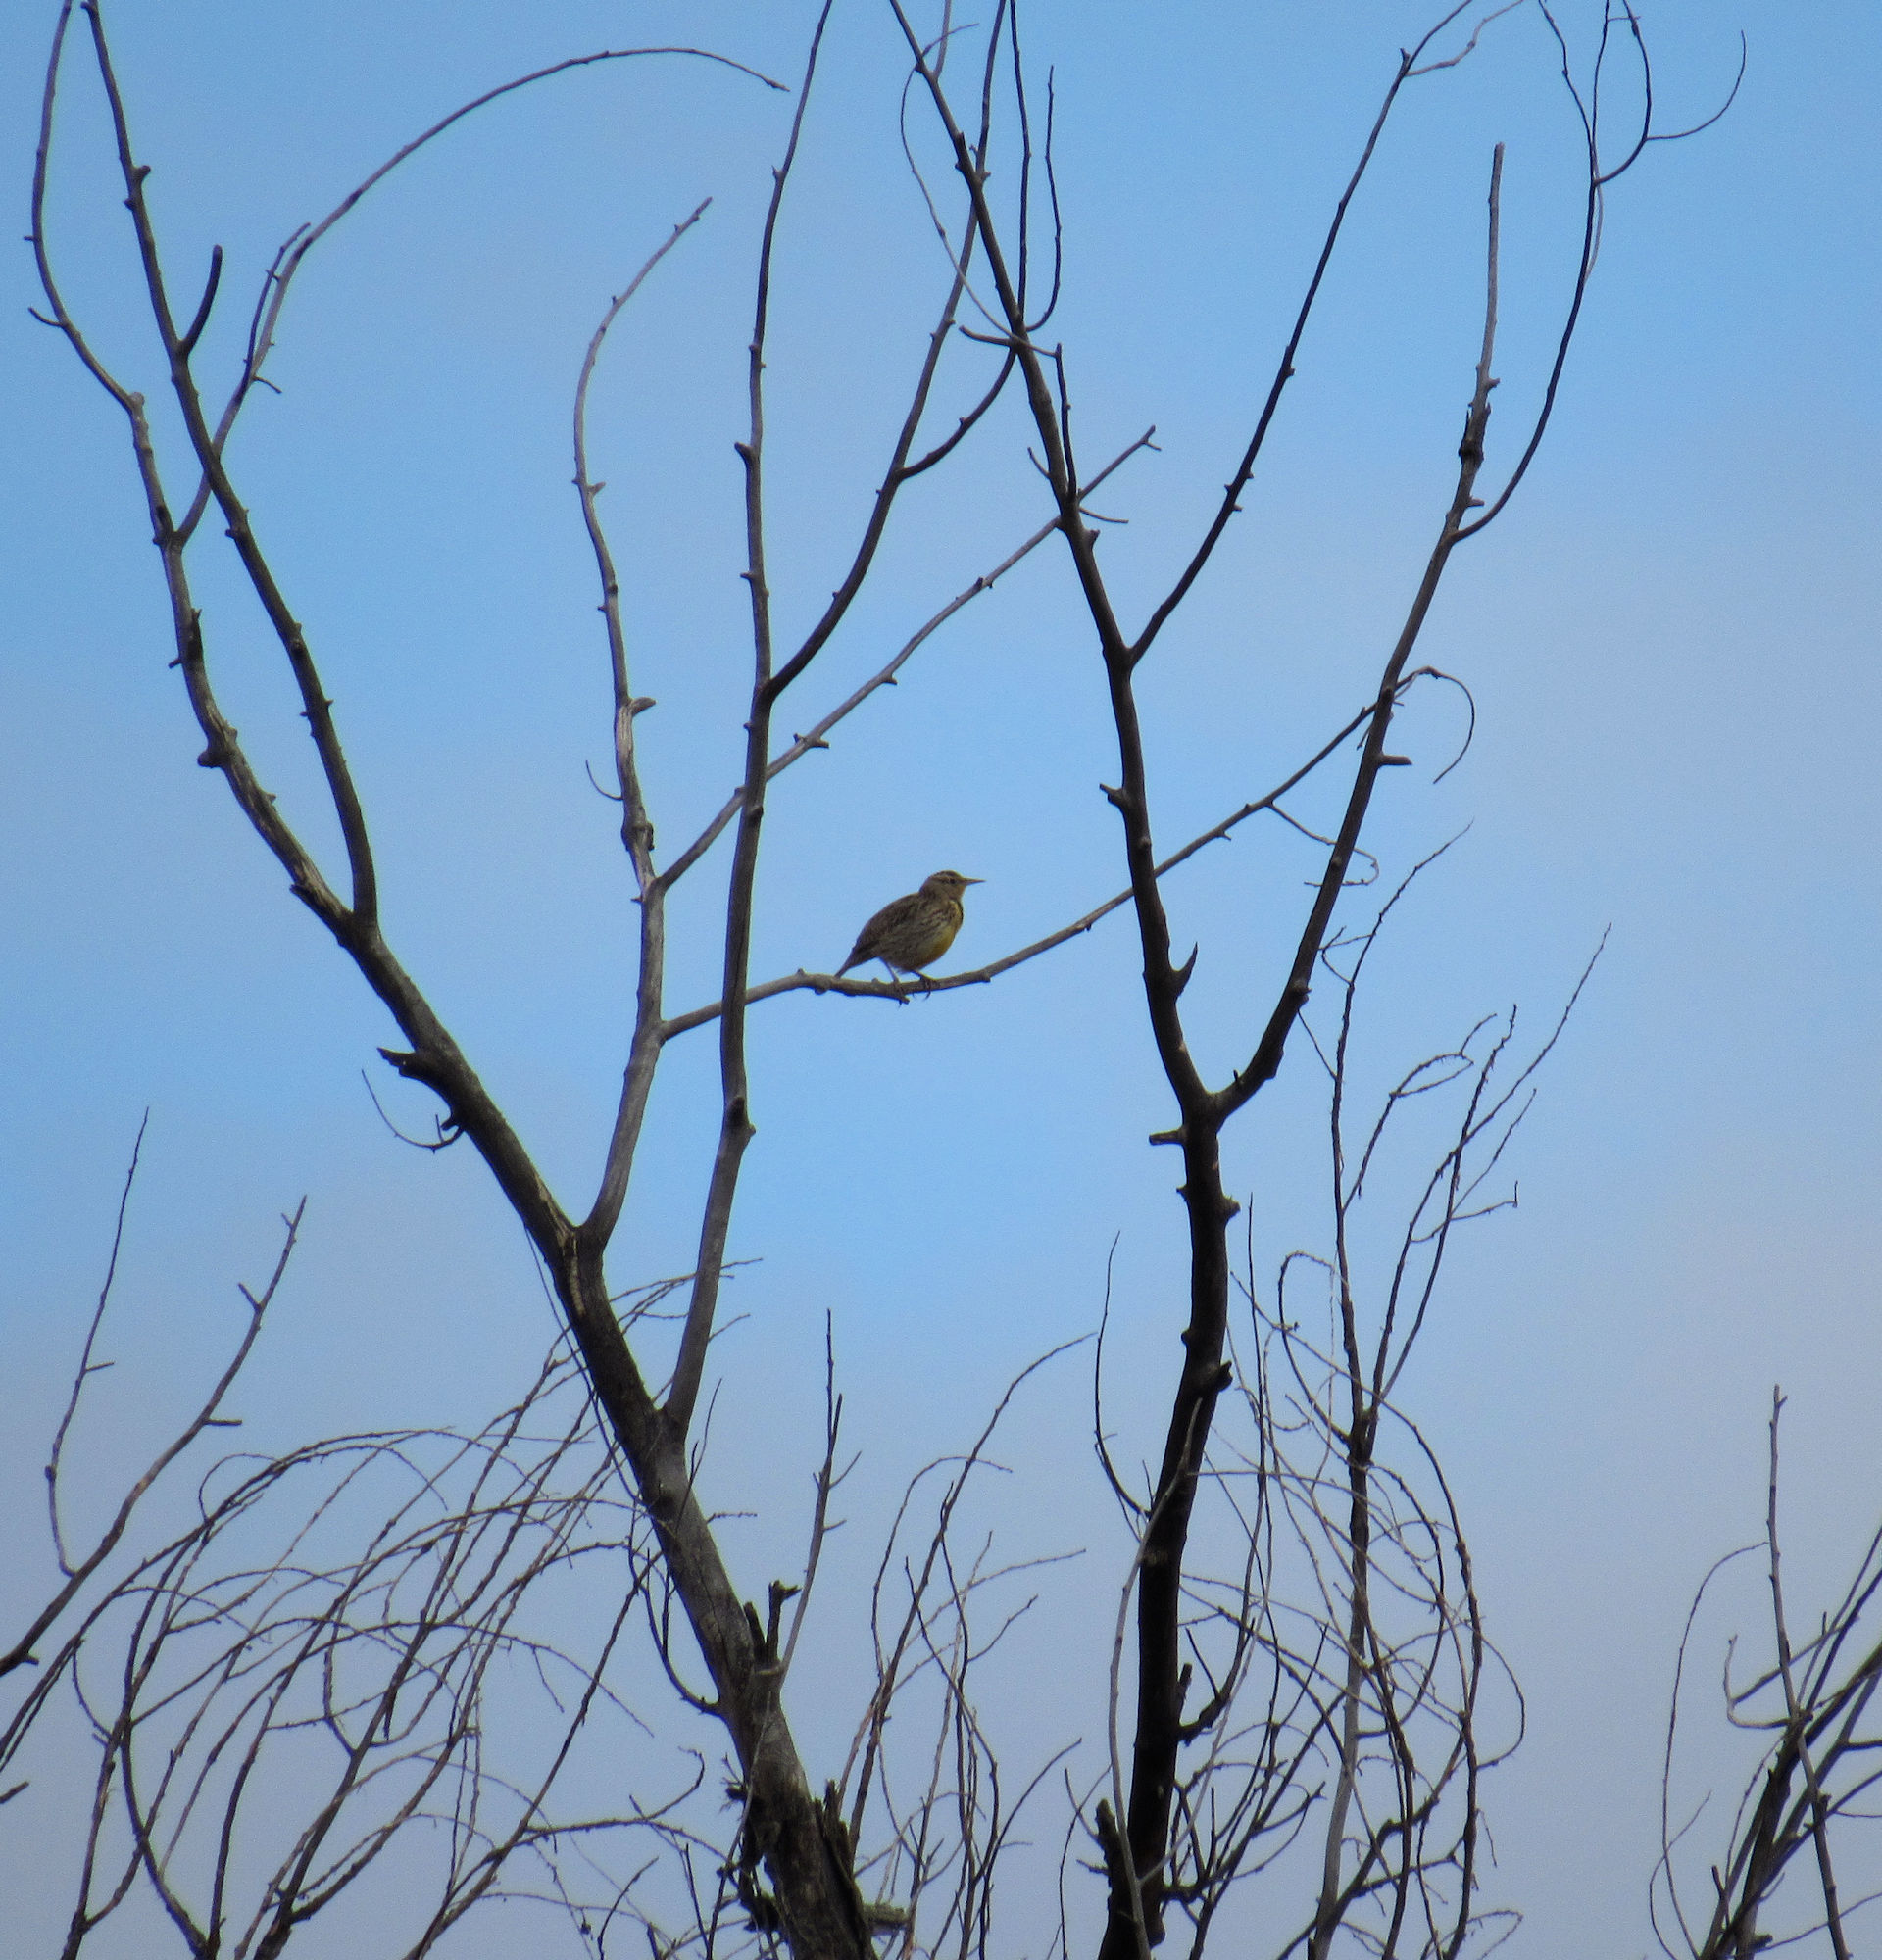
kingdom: Animalia
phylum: Chordata
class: Aves
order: Passeriformes
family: Icteridae
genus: Sturnella
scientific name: Sturnella neglecta
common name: Western meadowlark
